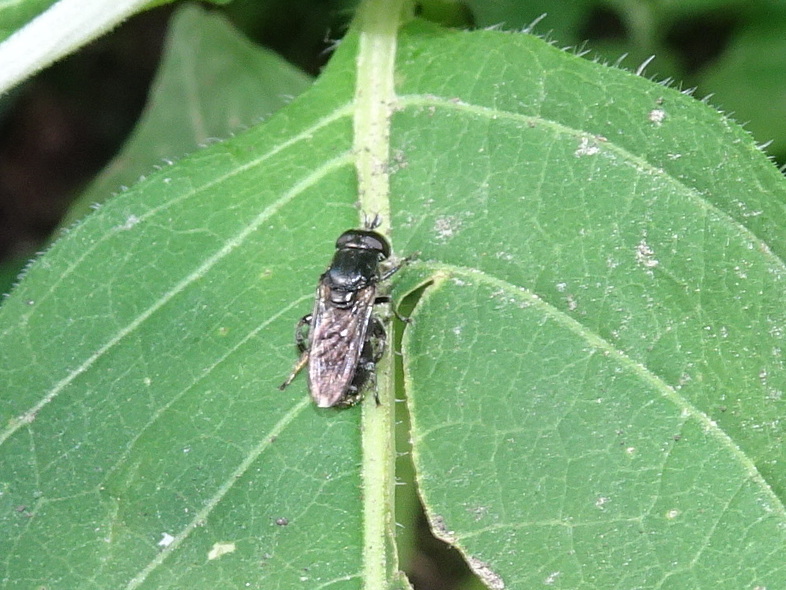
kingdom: Animalia
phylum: Arthropoda
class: Insecta
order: Diptera
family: Syrphidae
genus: Eumerus
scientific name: Eumerus
